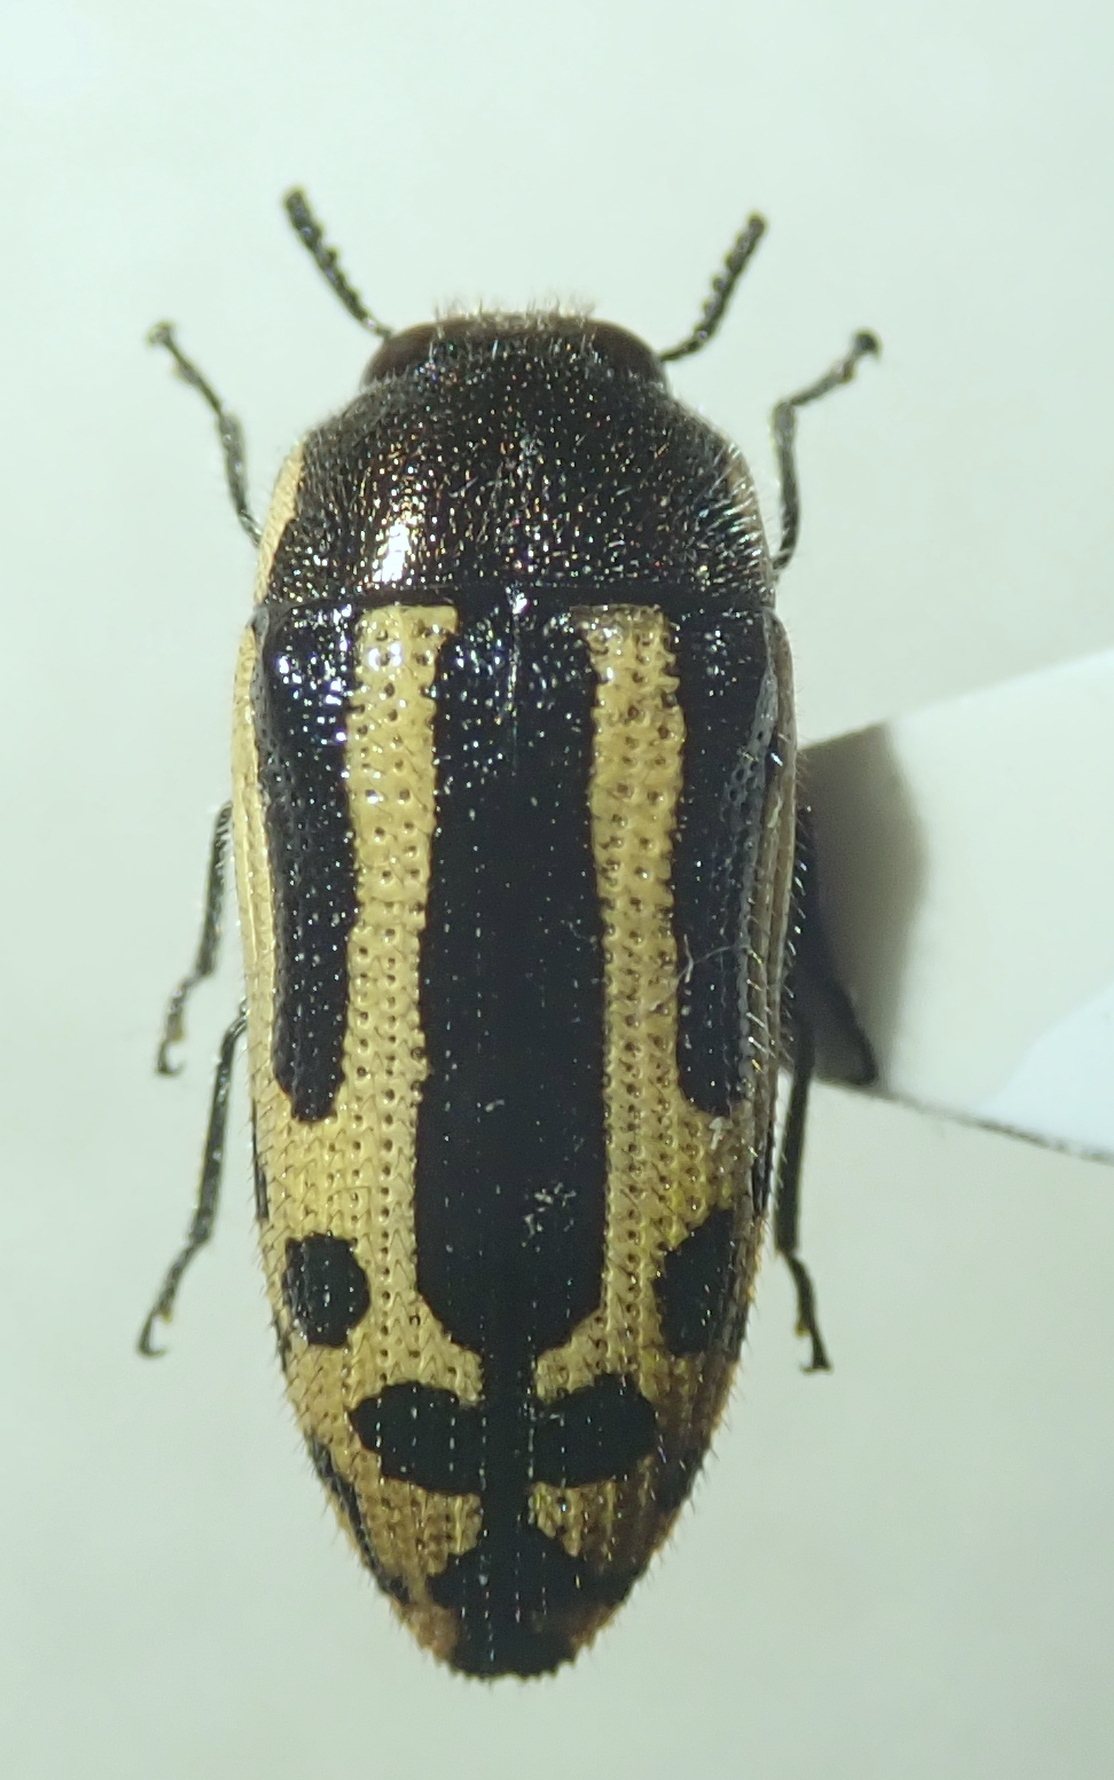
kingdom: Animalia
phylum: Arthropoda
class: Insecta
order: Coleoptera
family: Buprestidae
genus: Acmaeodera
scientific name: Acmaeodera scalaris
